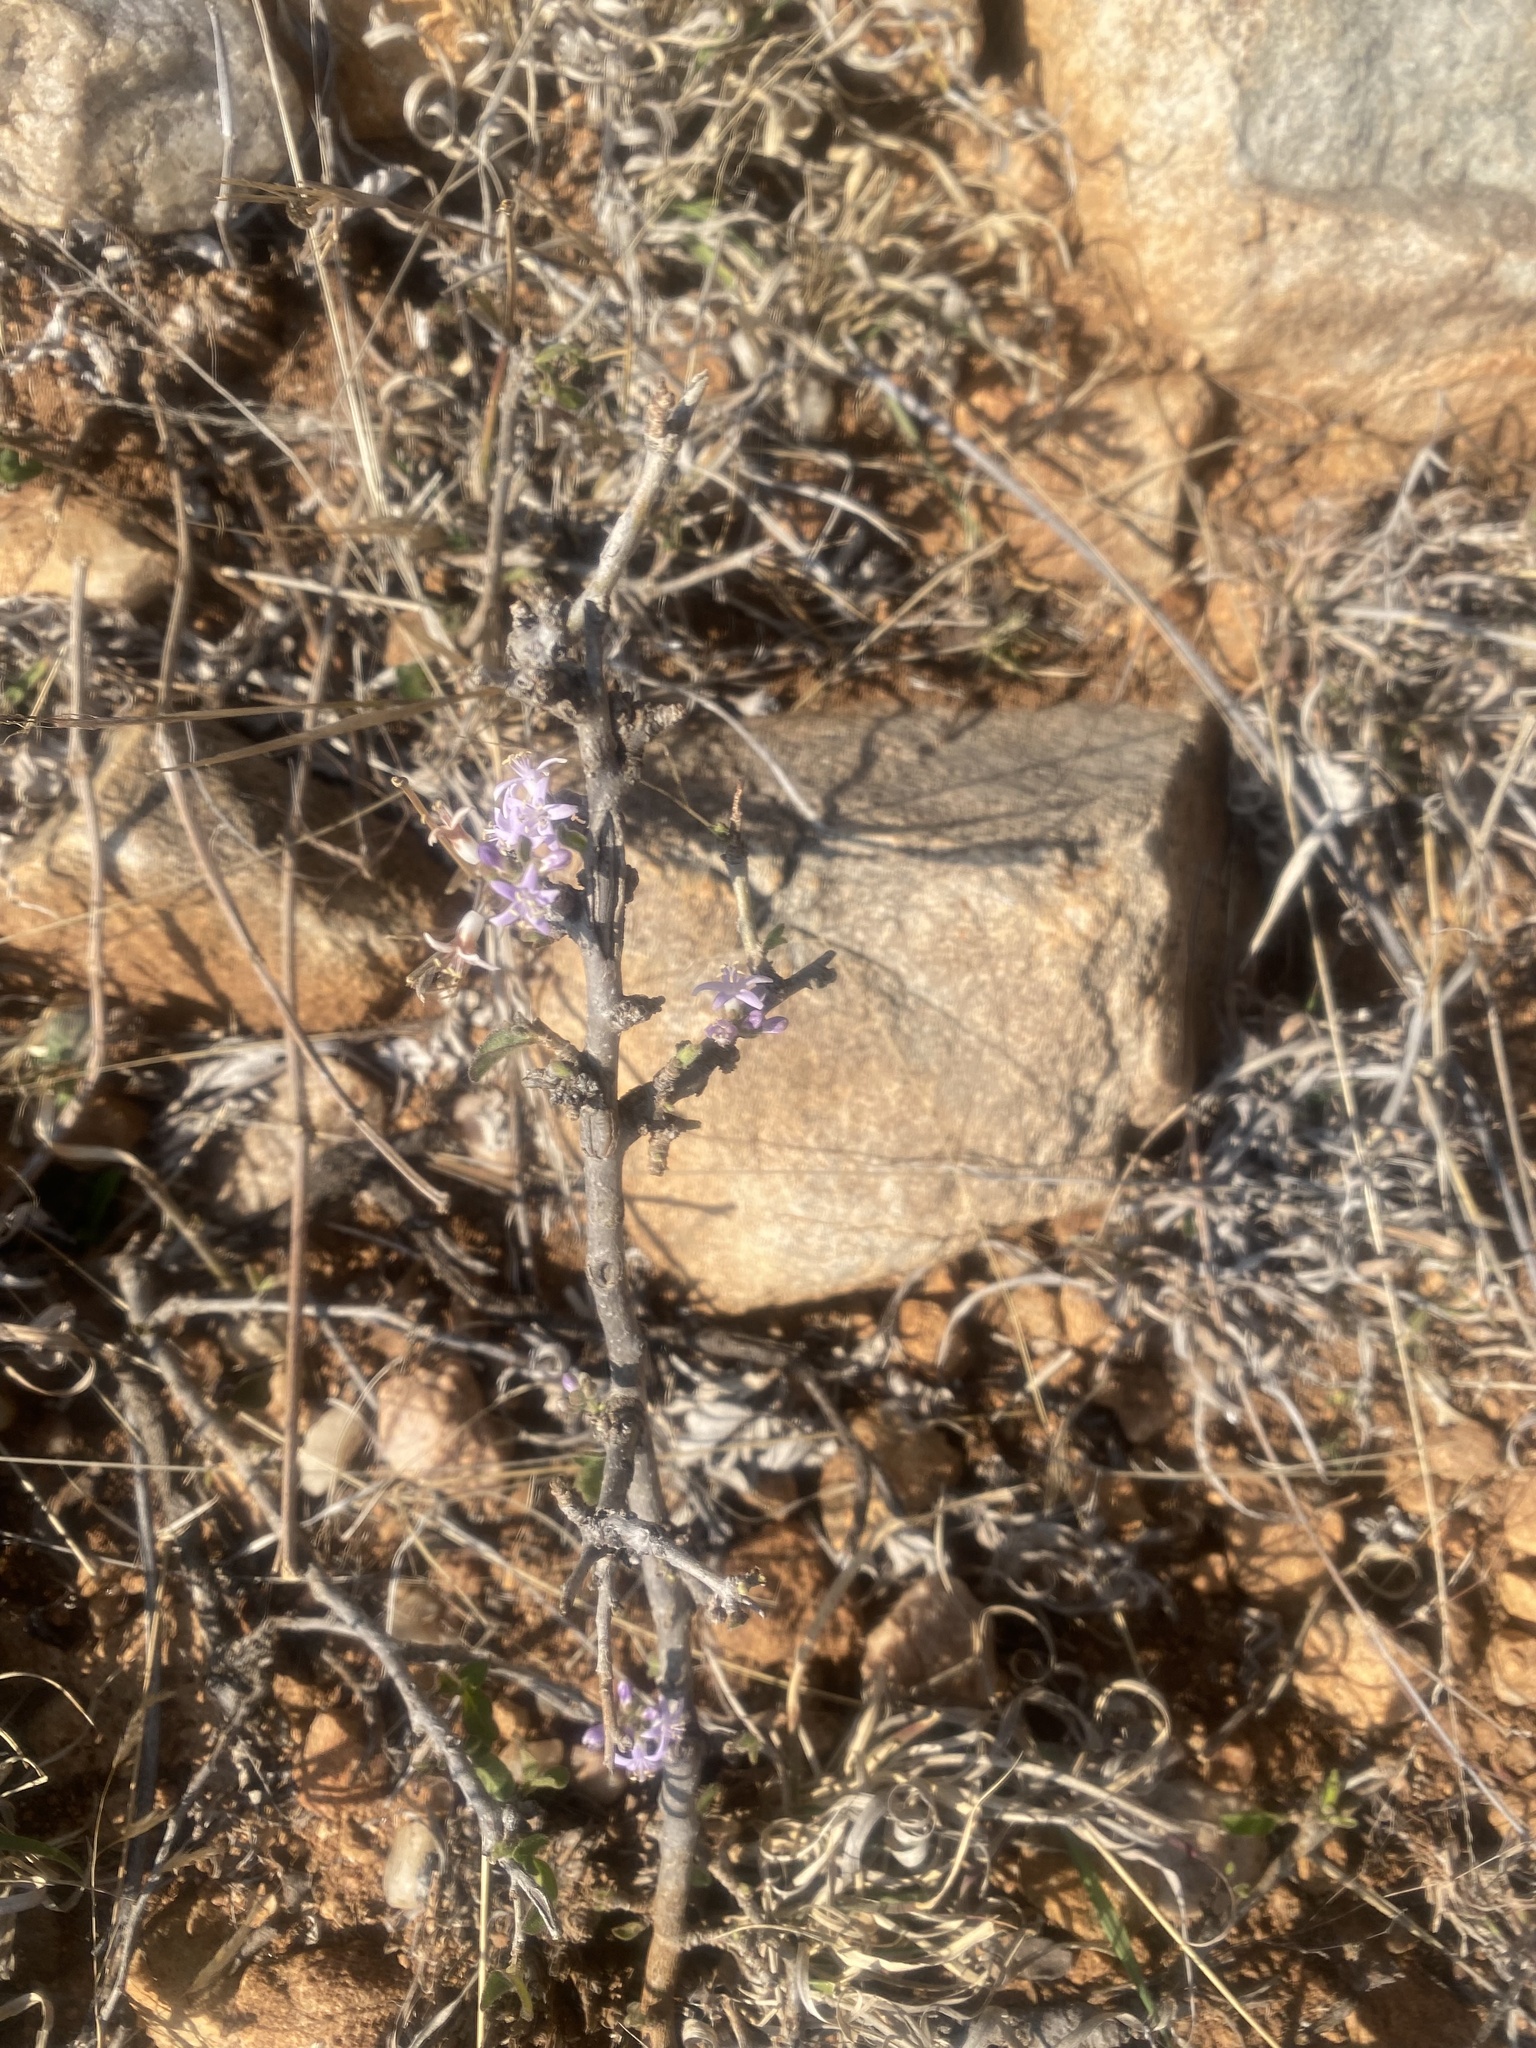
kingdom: Plantae
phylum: Tracheophyta
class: Magnoliopsida
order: Boraginales
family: Ehretiaceae
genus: Ehretia
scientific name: Ehretia rigida
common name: Cape lilac
